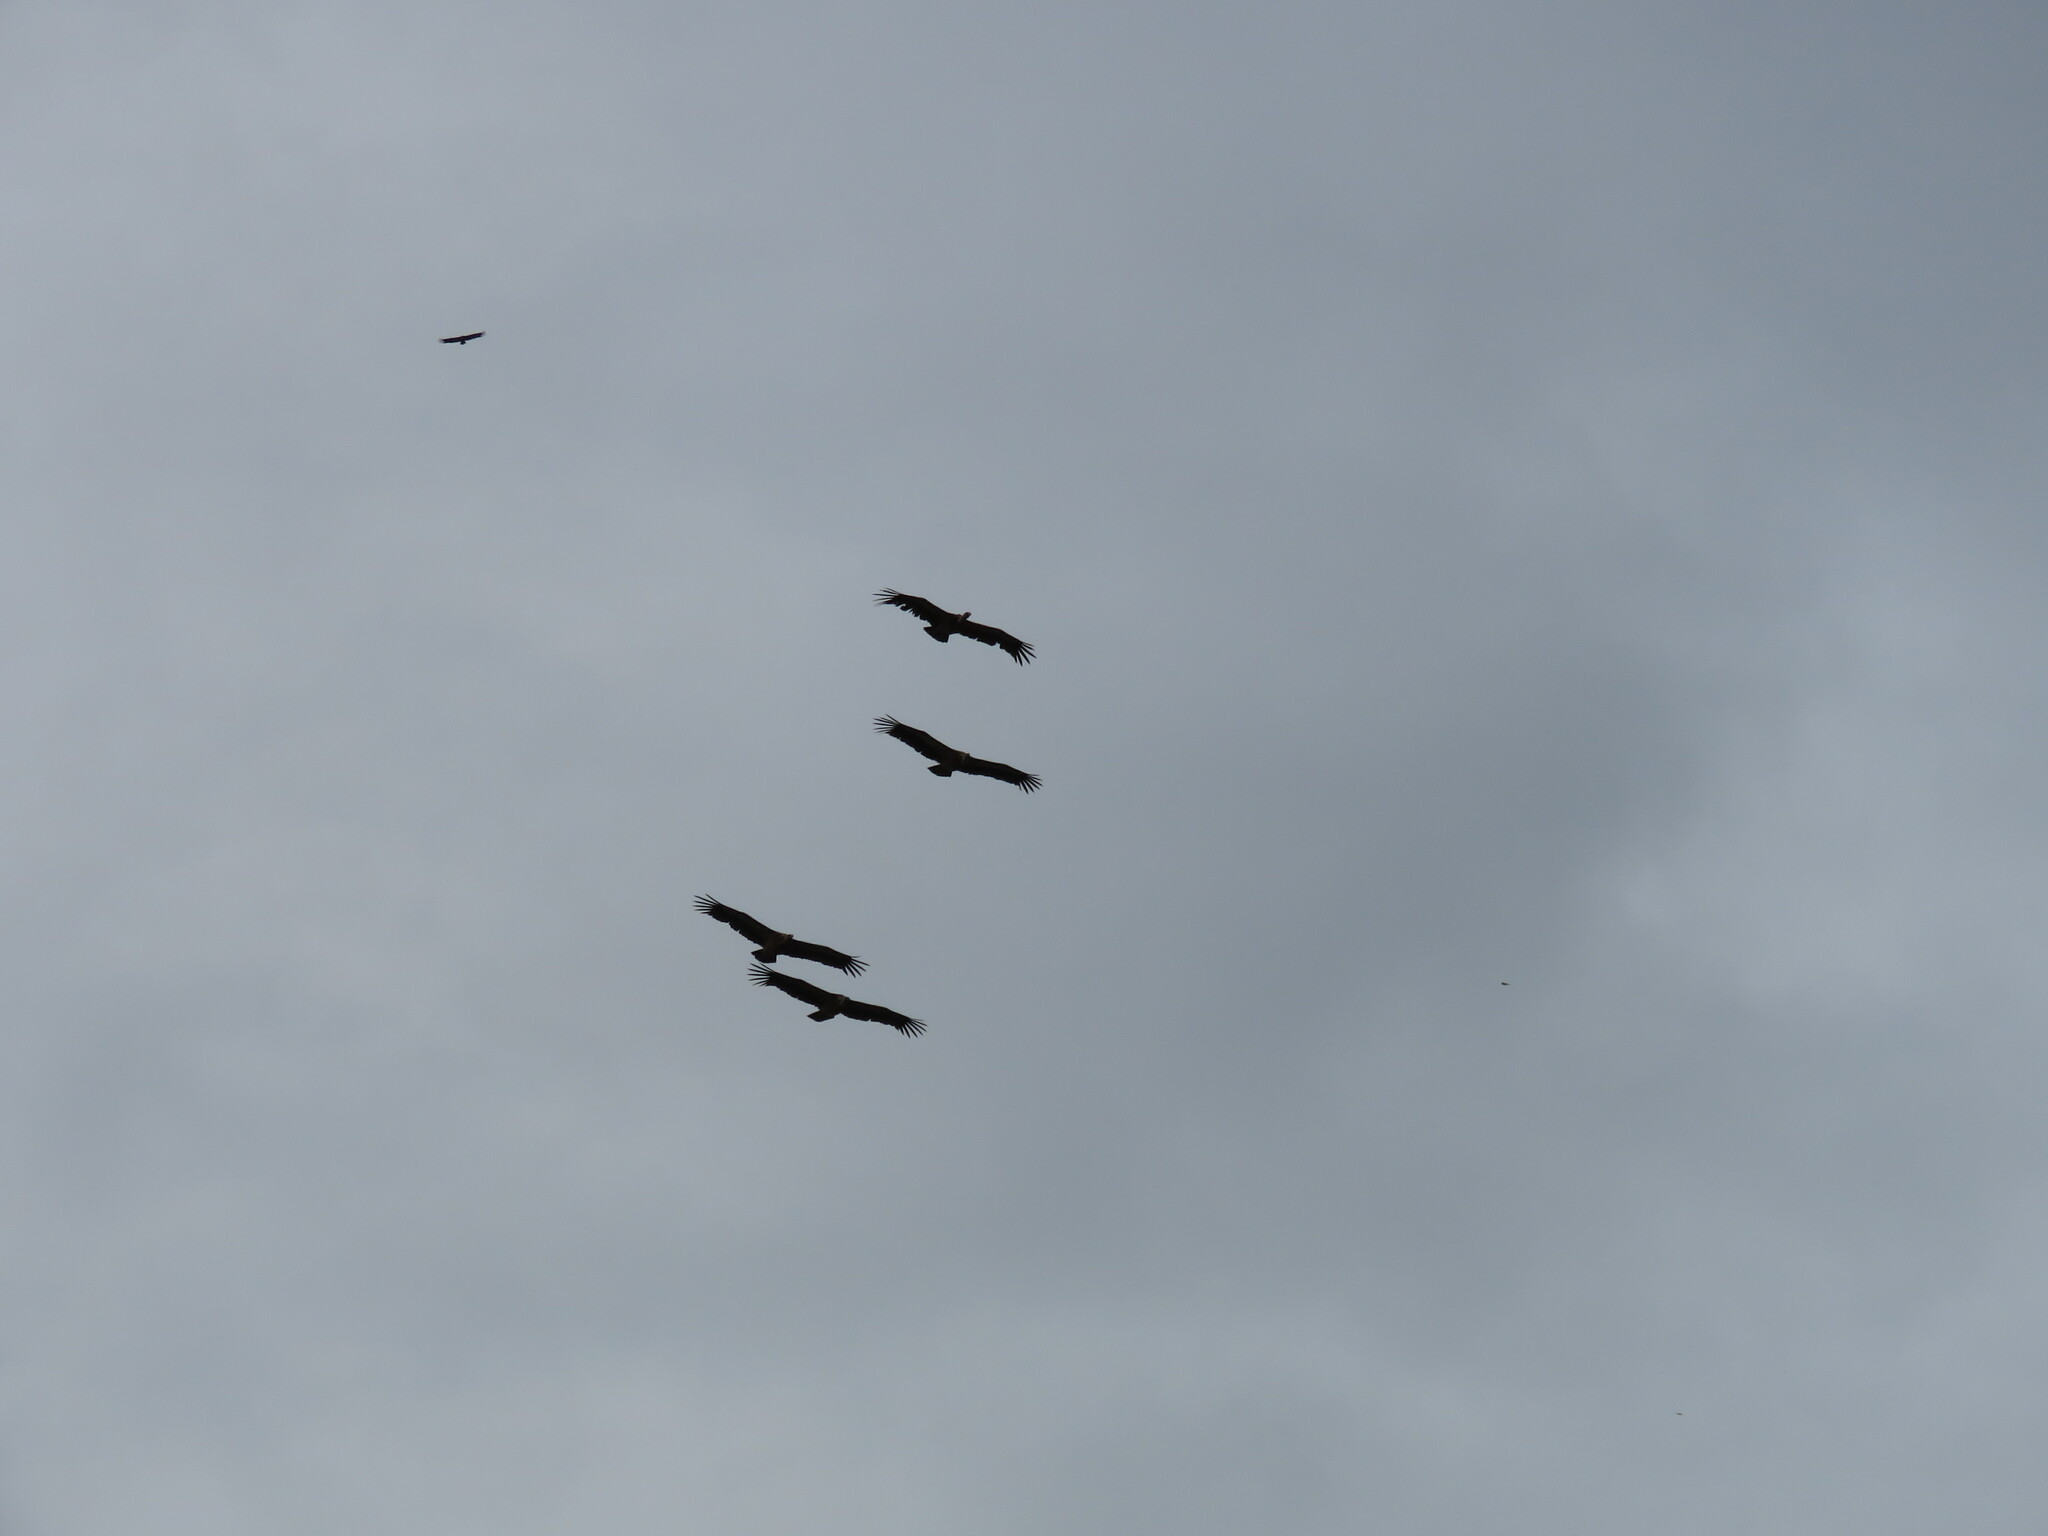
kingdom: Animalia
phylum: Chordata
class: Aves
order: Accipitriformes
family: Accipitridae
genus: Gyps
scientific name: Gyps fulvus
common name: Griffon vulture
